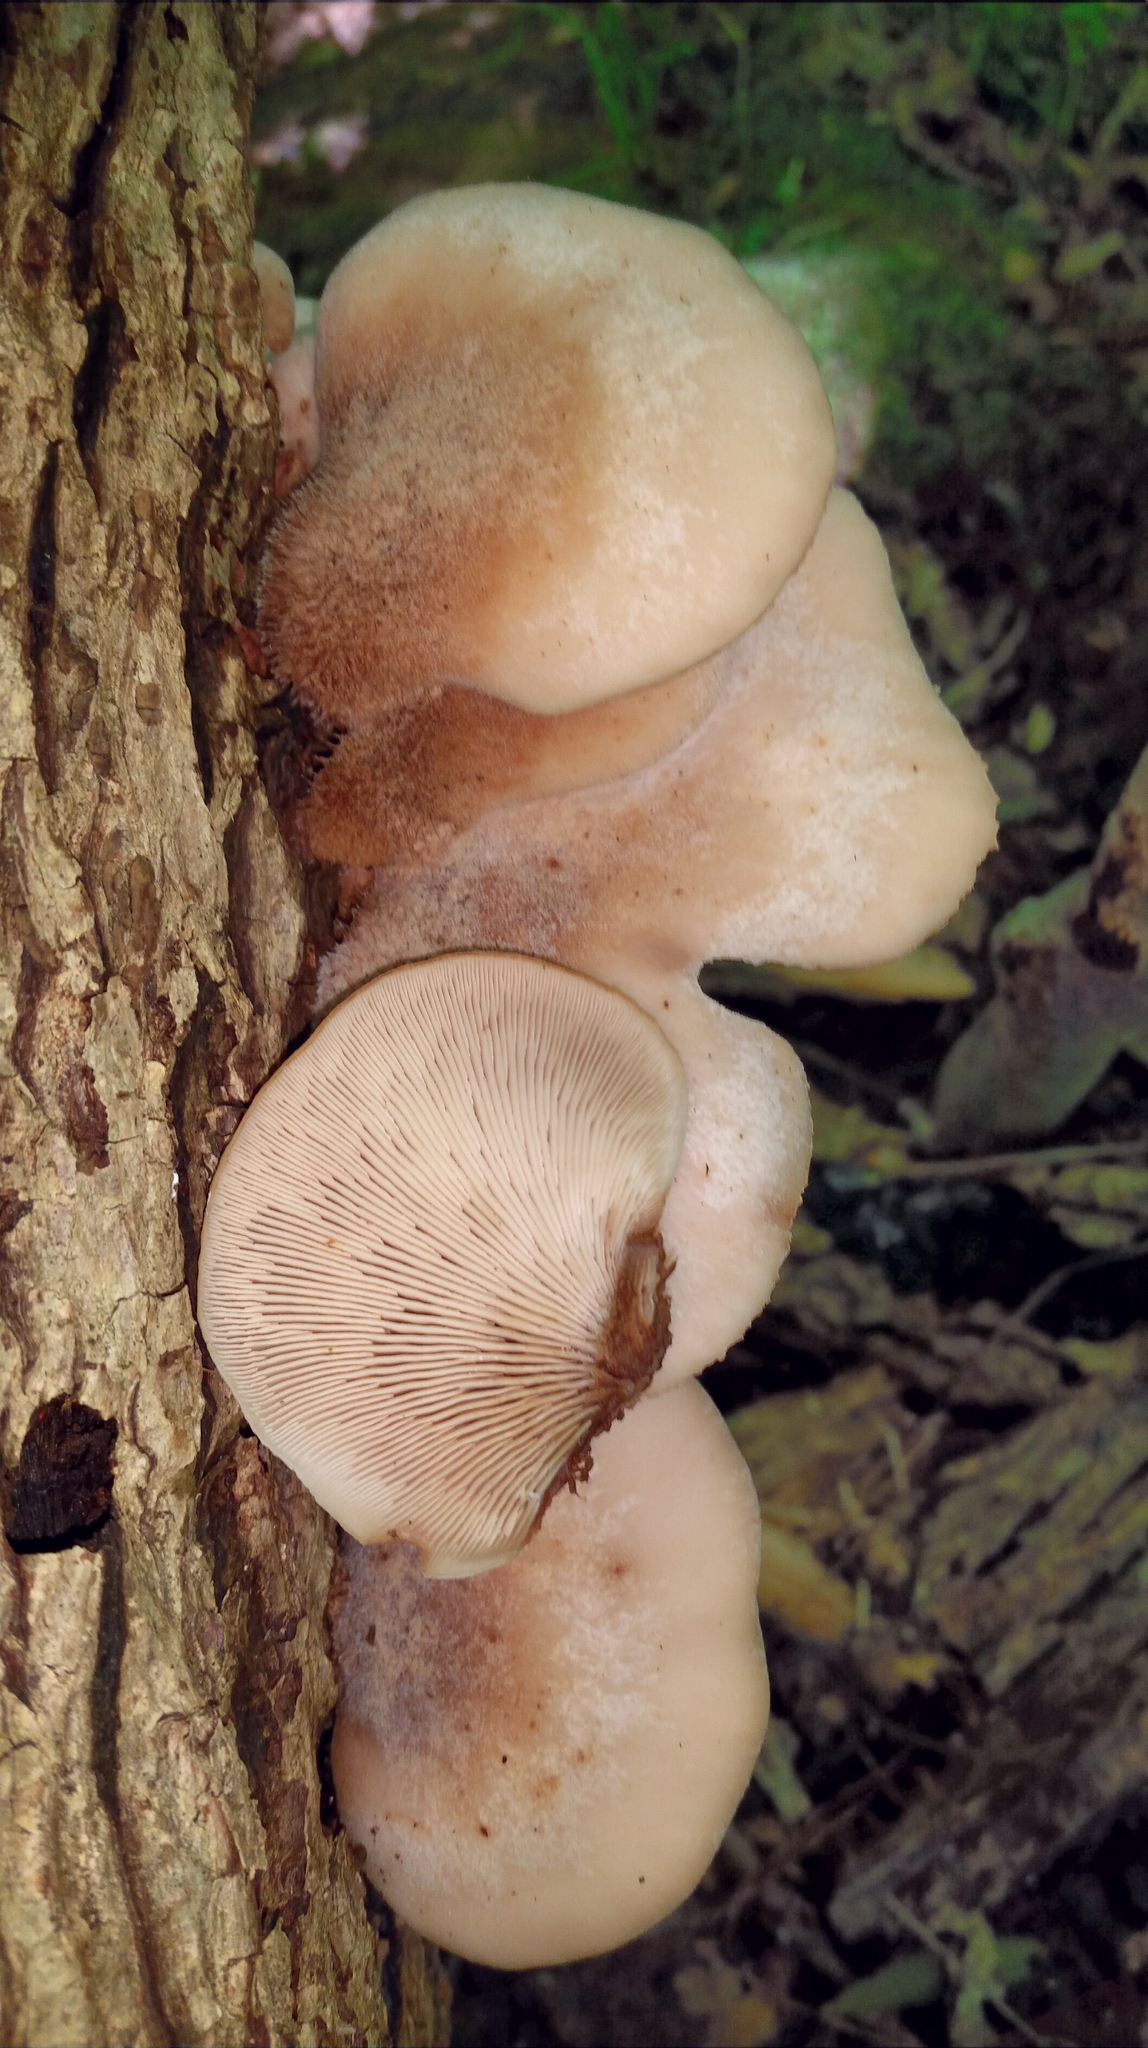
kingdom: Fungi
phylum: Basidiomycota
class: Agaricomycetes
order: Russulales
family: Auriscalpiaceae
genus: Lentinellus
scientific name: Lentinellus ursinus
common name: Bear lentinus
